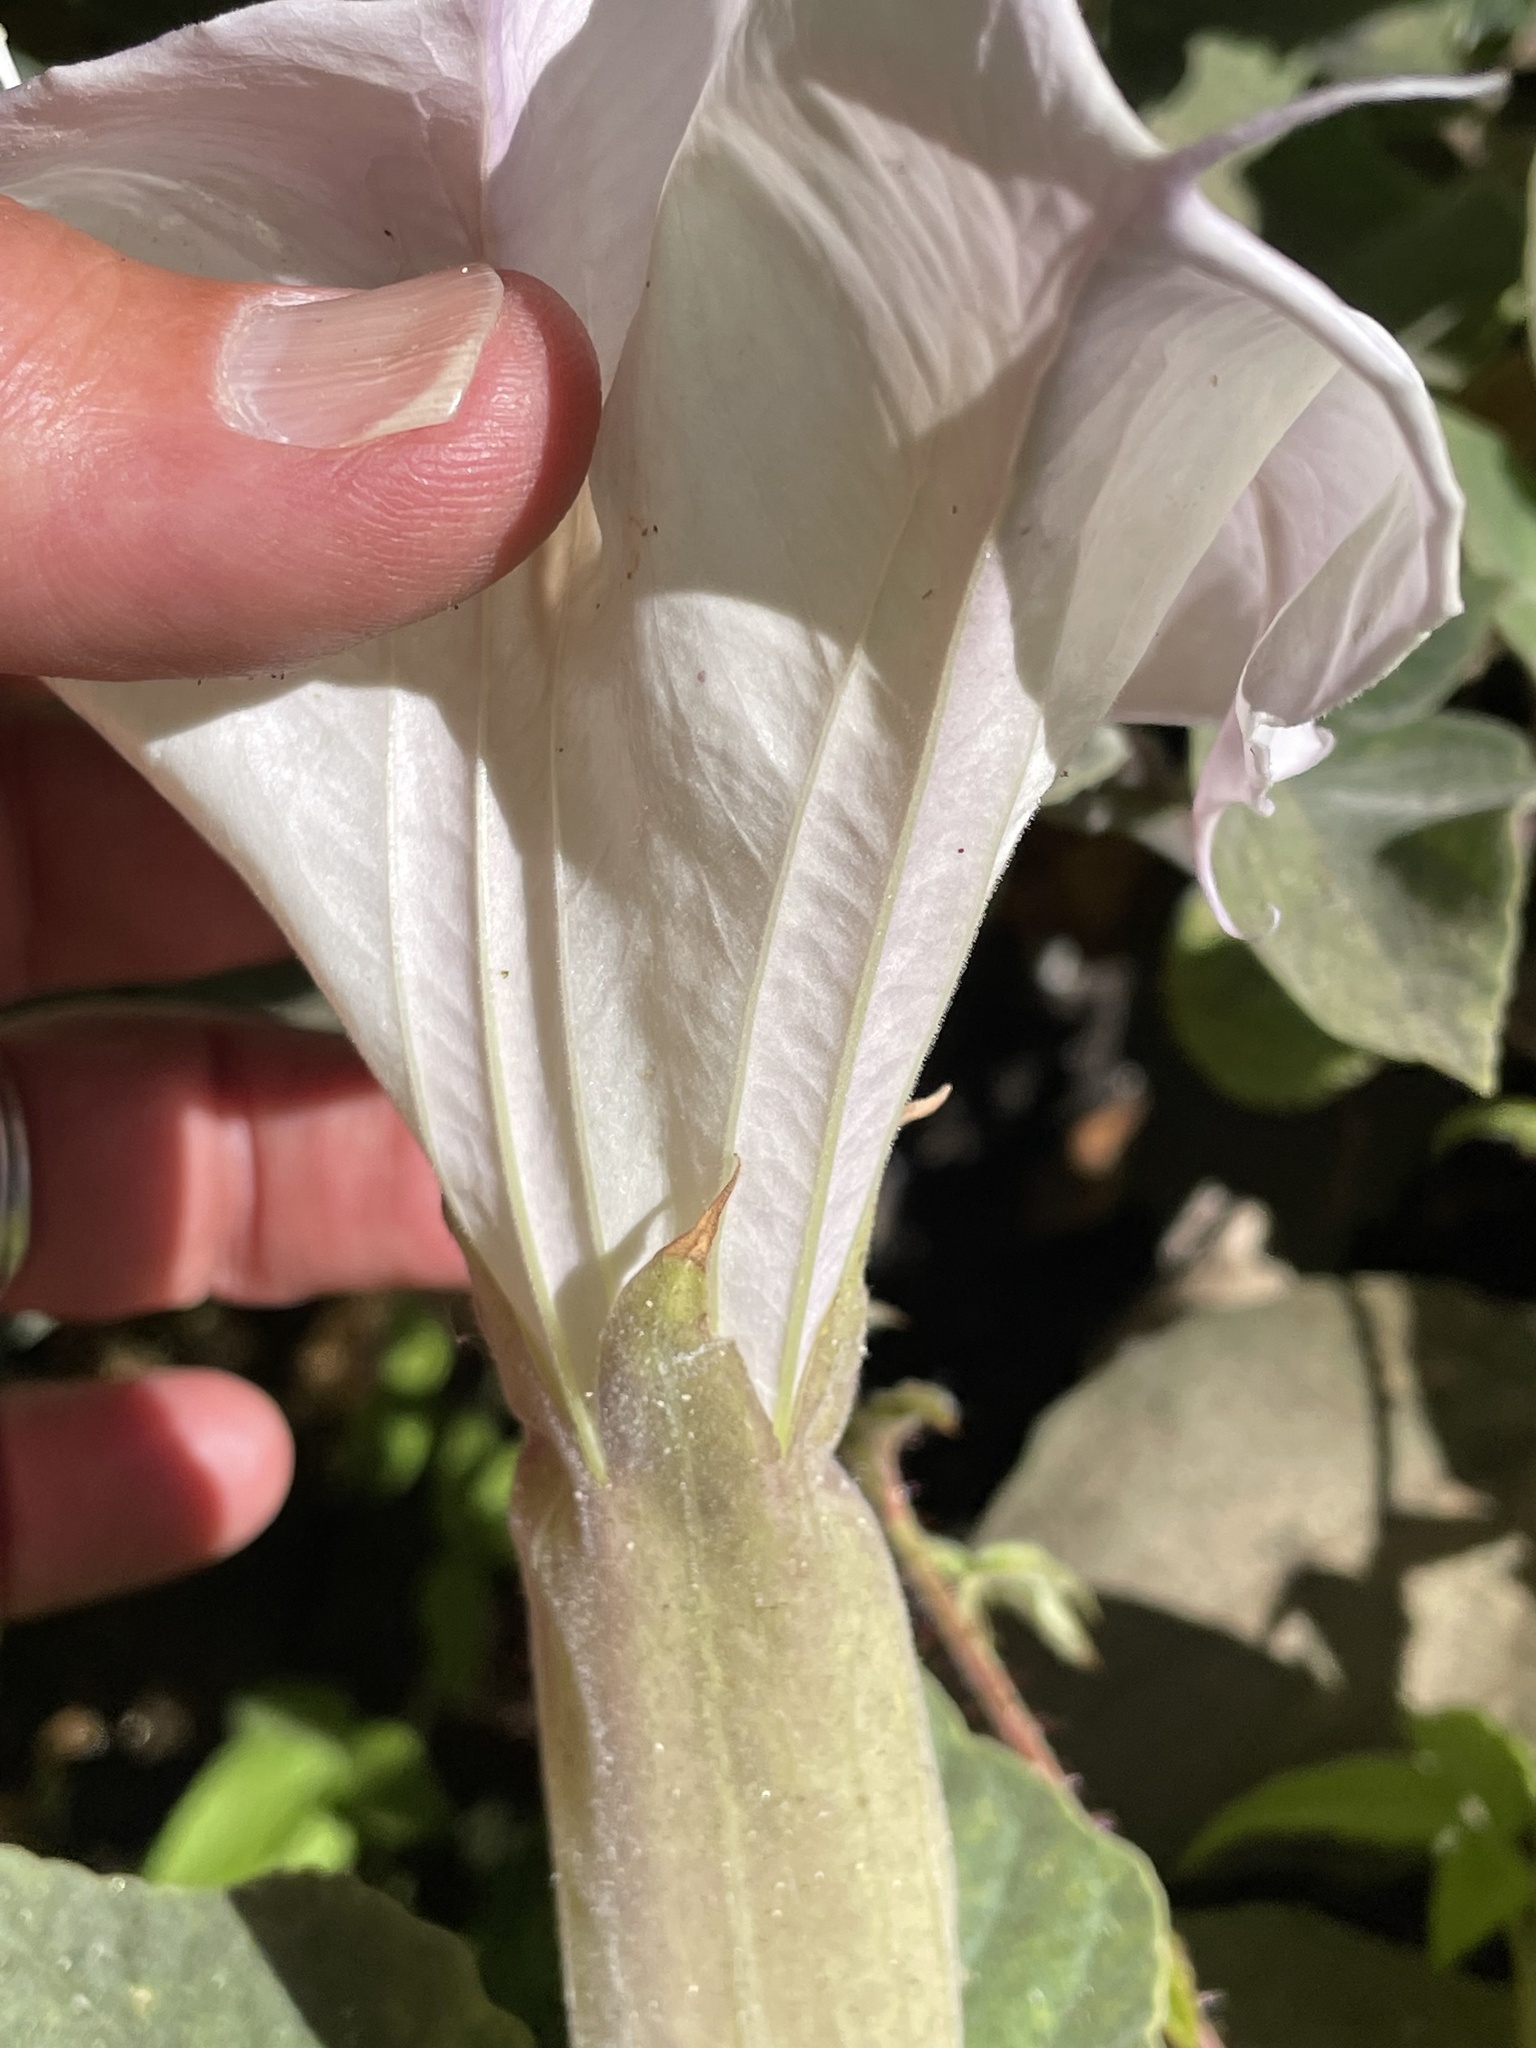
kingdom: Plantae
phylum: Tracheophyta
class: Magnoliopsida
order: Solanales
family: Solanaceae
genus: Datura
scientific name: Datura wrightii
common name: Sacred thorn-apple
